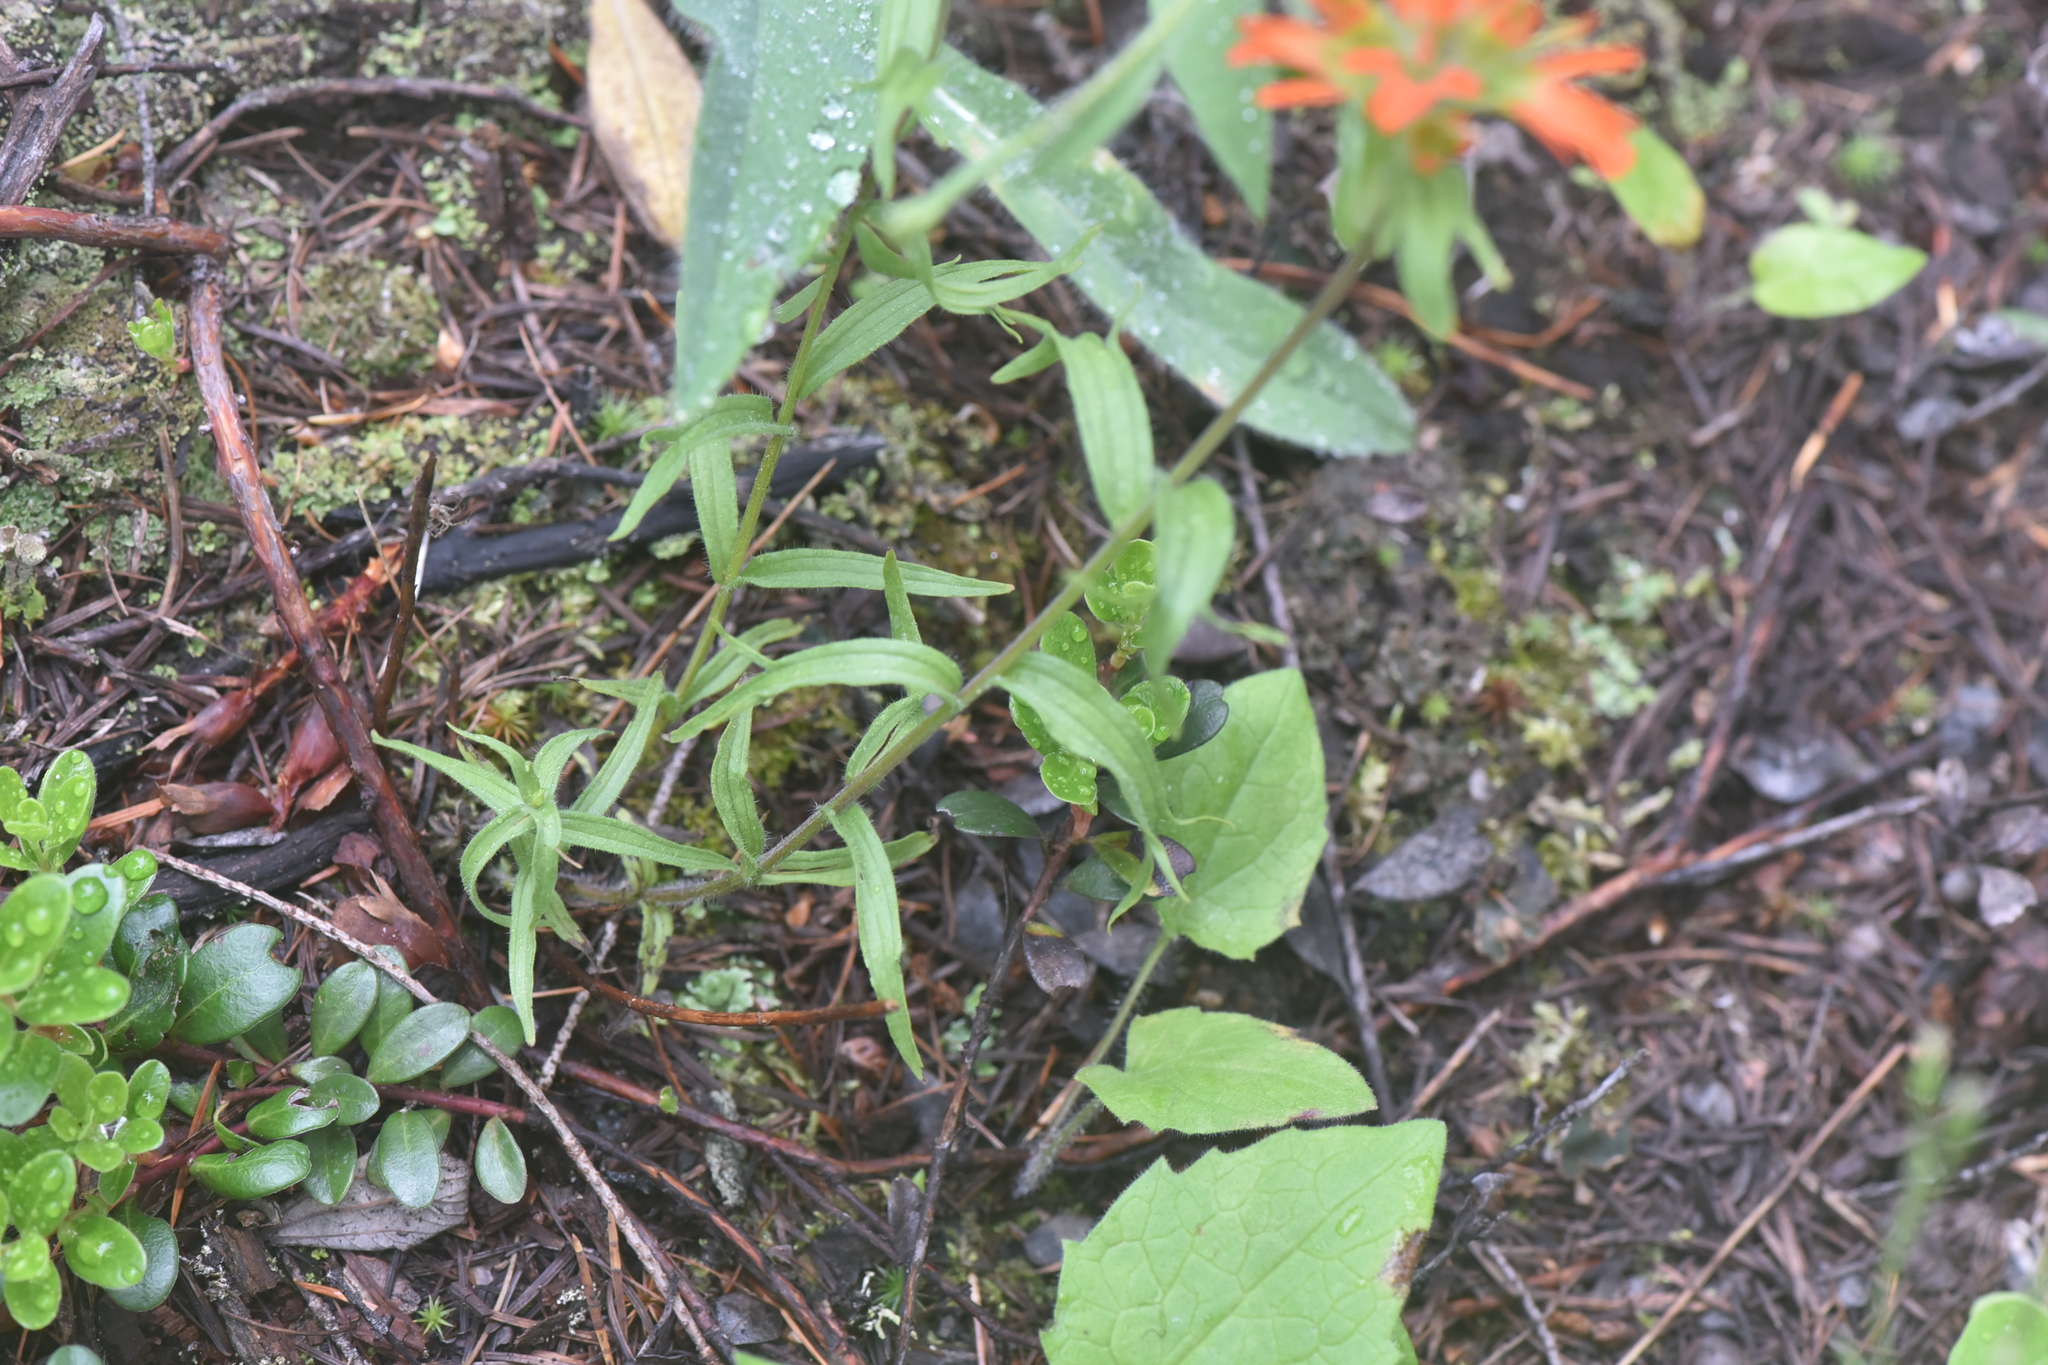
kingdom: Plantae
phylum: Tracheophyta
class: Magnoliopsida
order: Lamiales
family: Orobanchaceae
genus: Castilleja
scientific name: Castilleja hispida
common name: Bristly paintbrush
